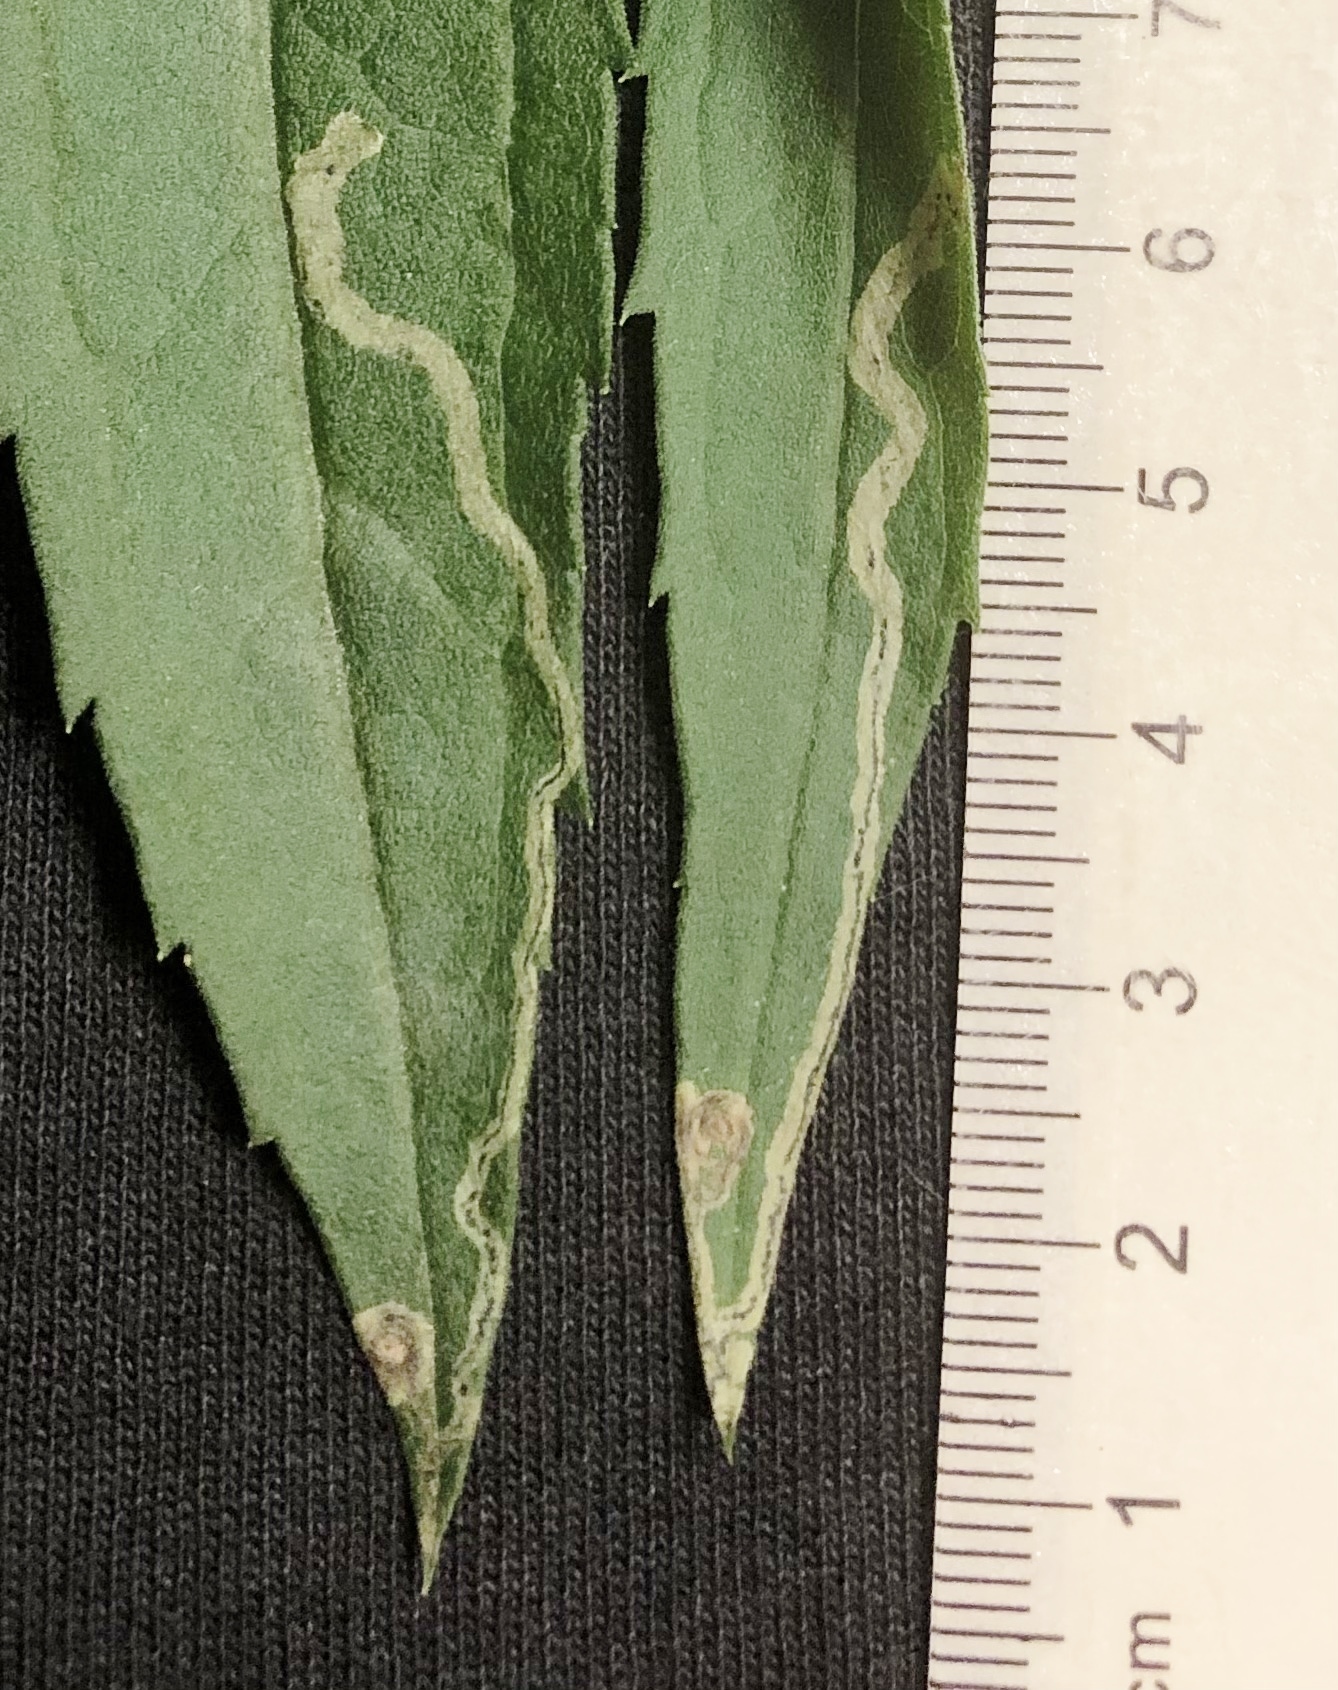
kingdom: Animalia
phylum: Arthropoda
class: Insecta
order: Diptera
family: Agromyzidae
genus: Liriomyza
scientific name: Liriomyza eupatorii
